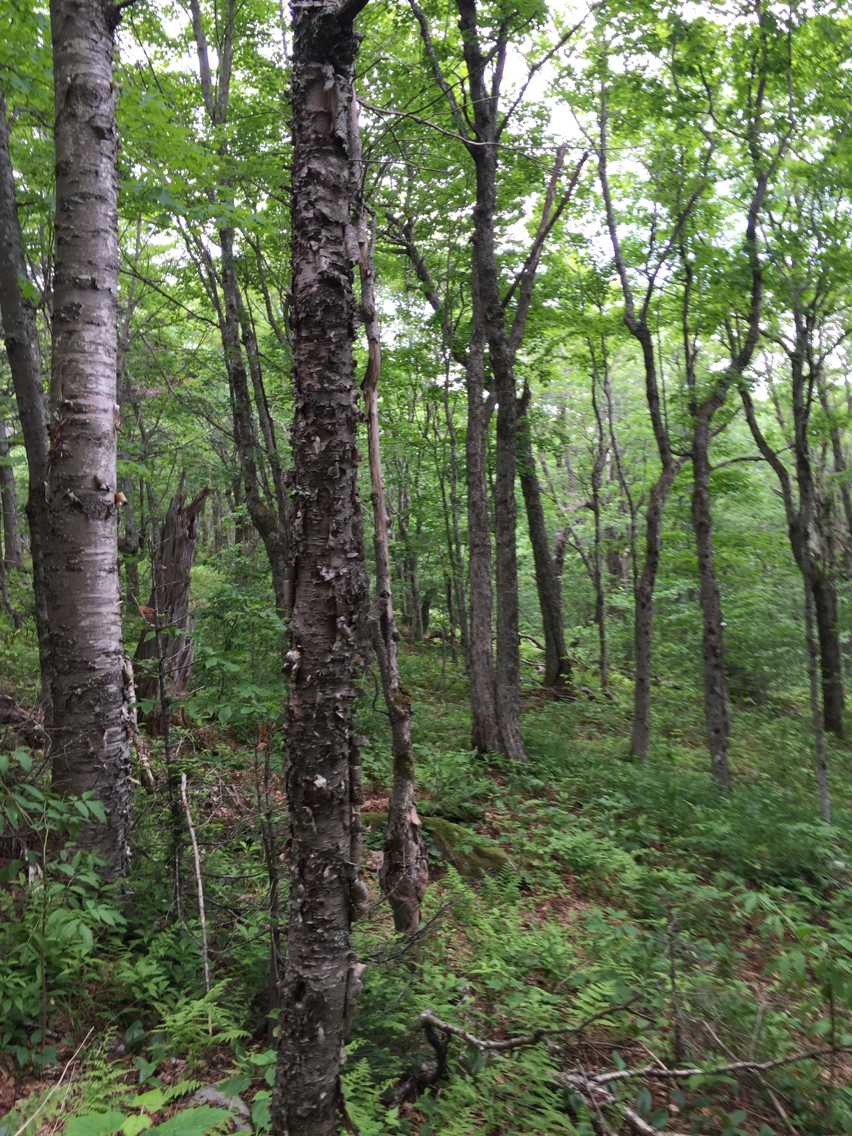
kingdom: Plantae
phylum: Tracheophyta
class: Magnoliopsida
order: Fagales
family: Betulaceae
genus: Betula
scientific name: Betula cordifolia
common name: Mountain white birch
